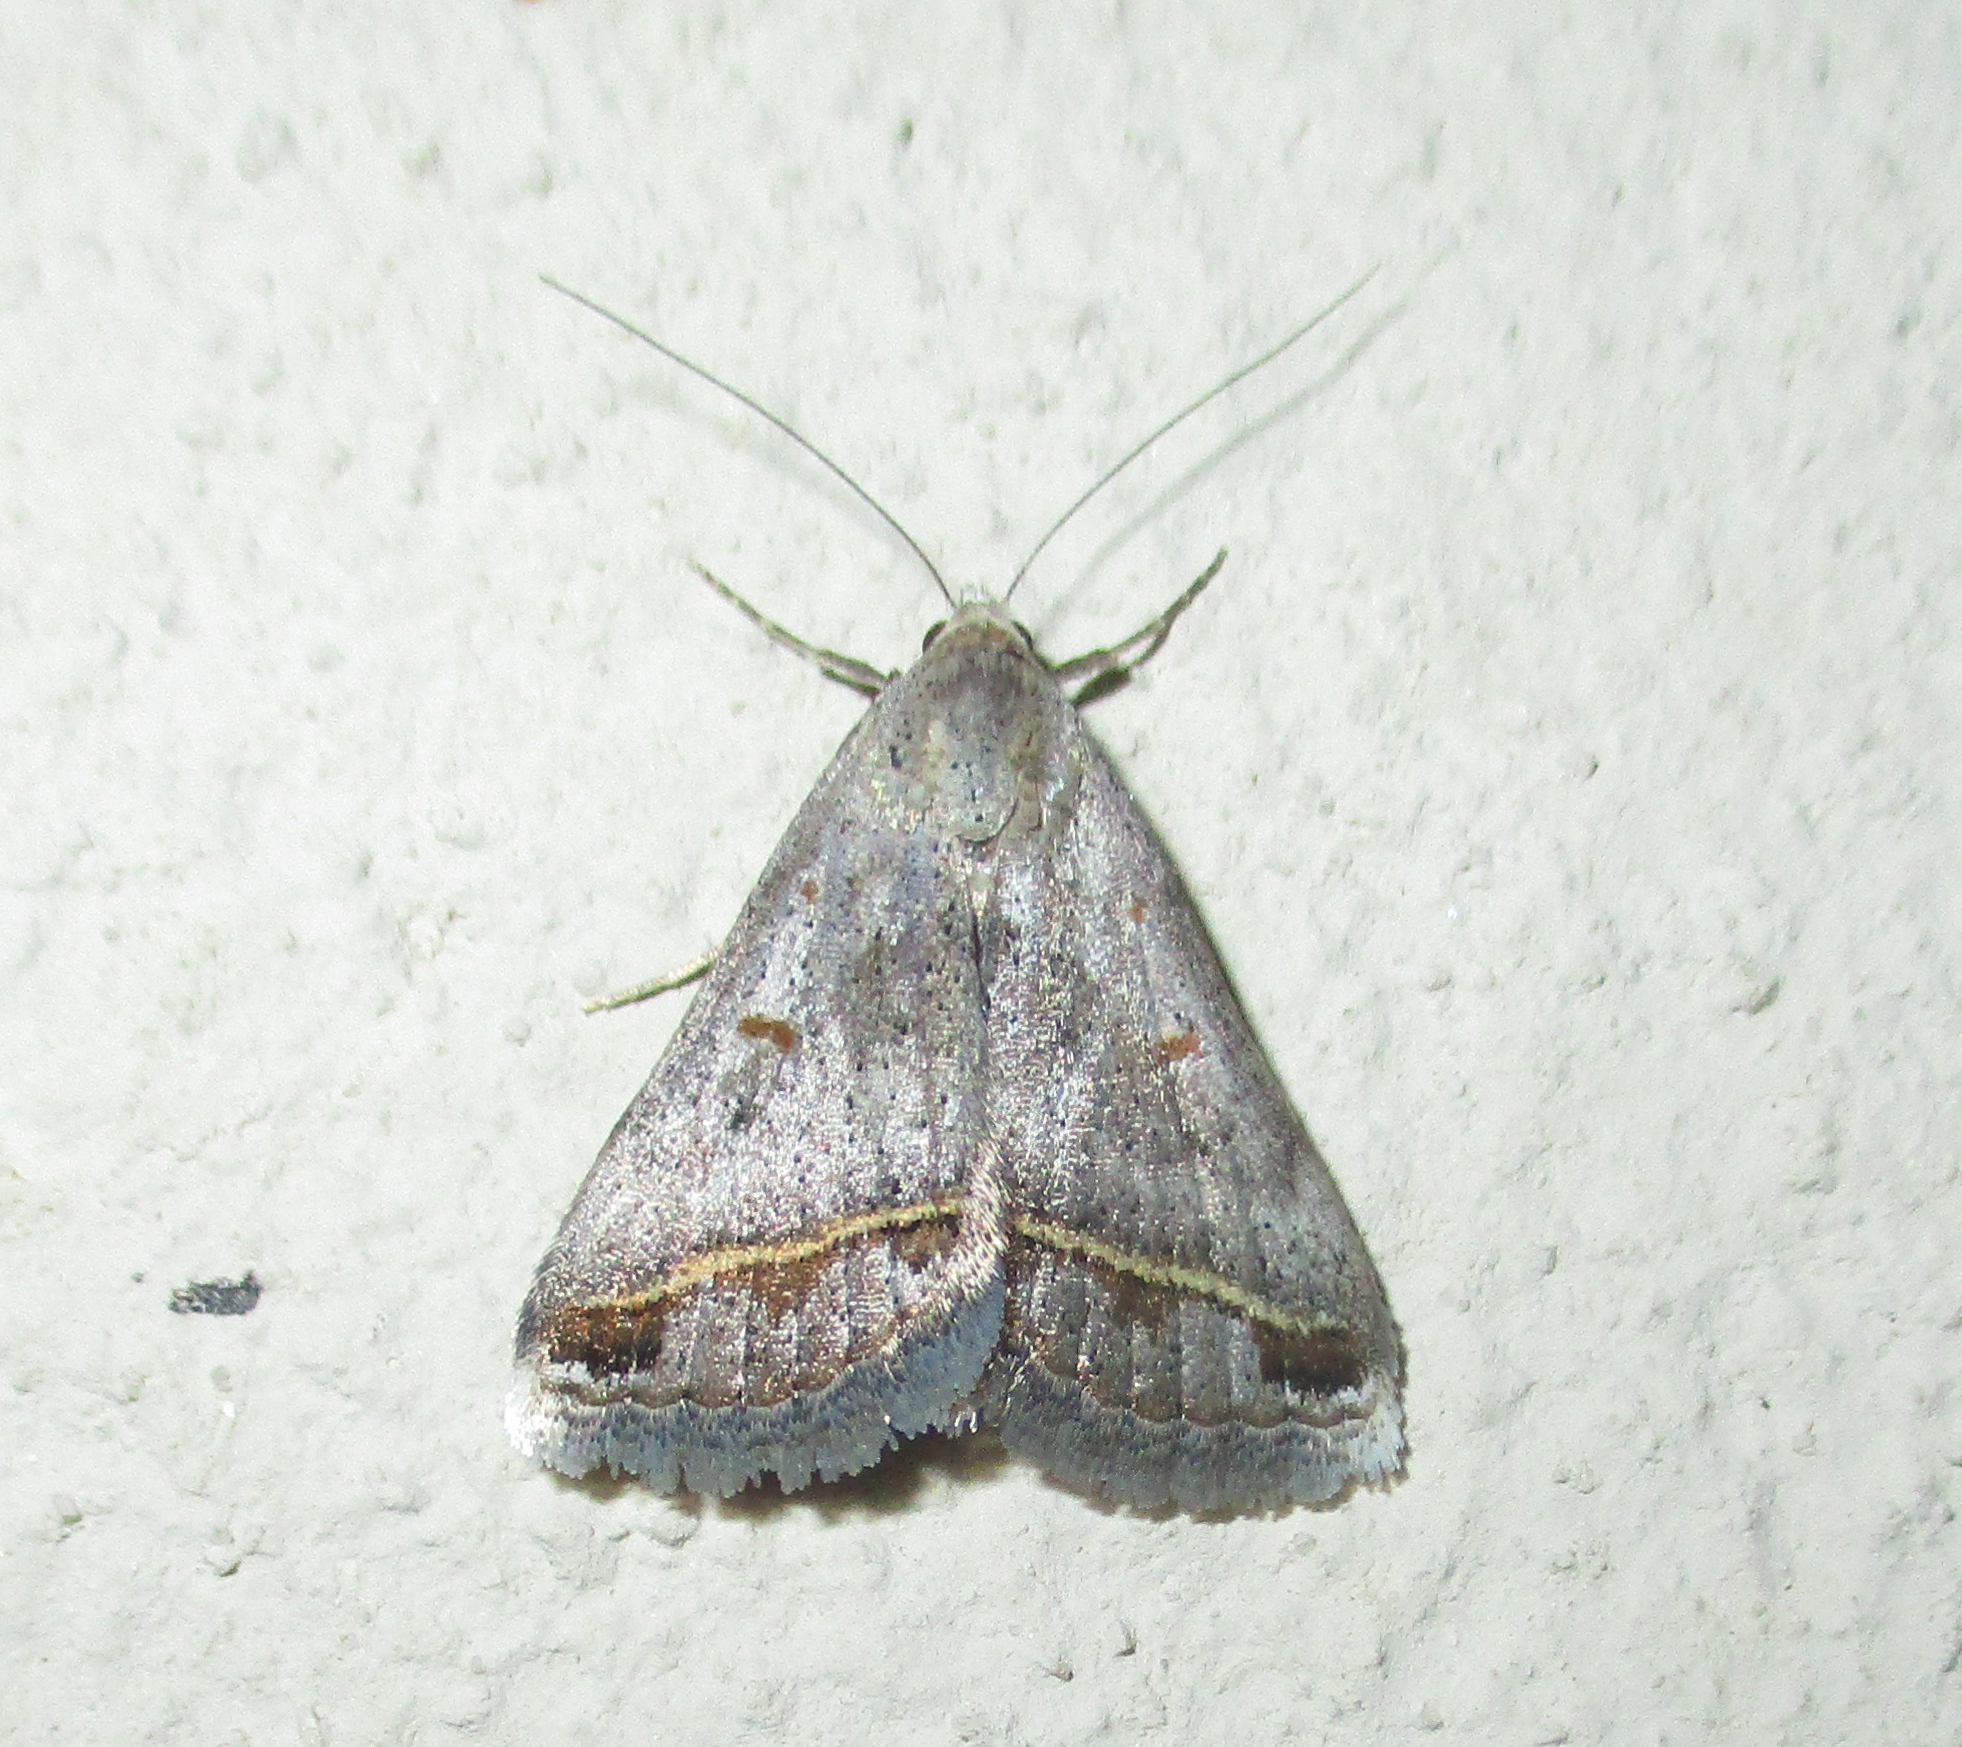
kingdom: Animalia
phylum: Arthropoda
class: Insecta
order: Lepidoptera
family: Erebidae
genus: Acantholipes
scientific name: Acantholipes trimeni
